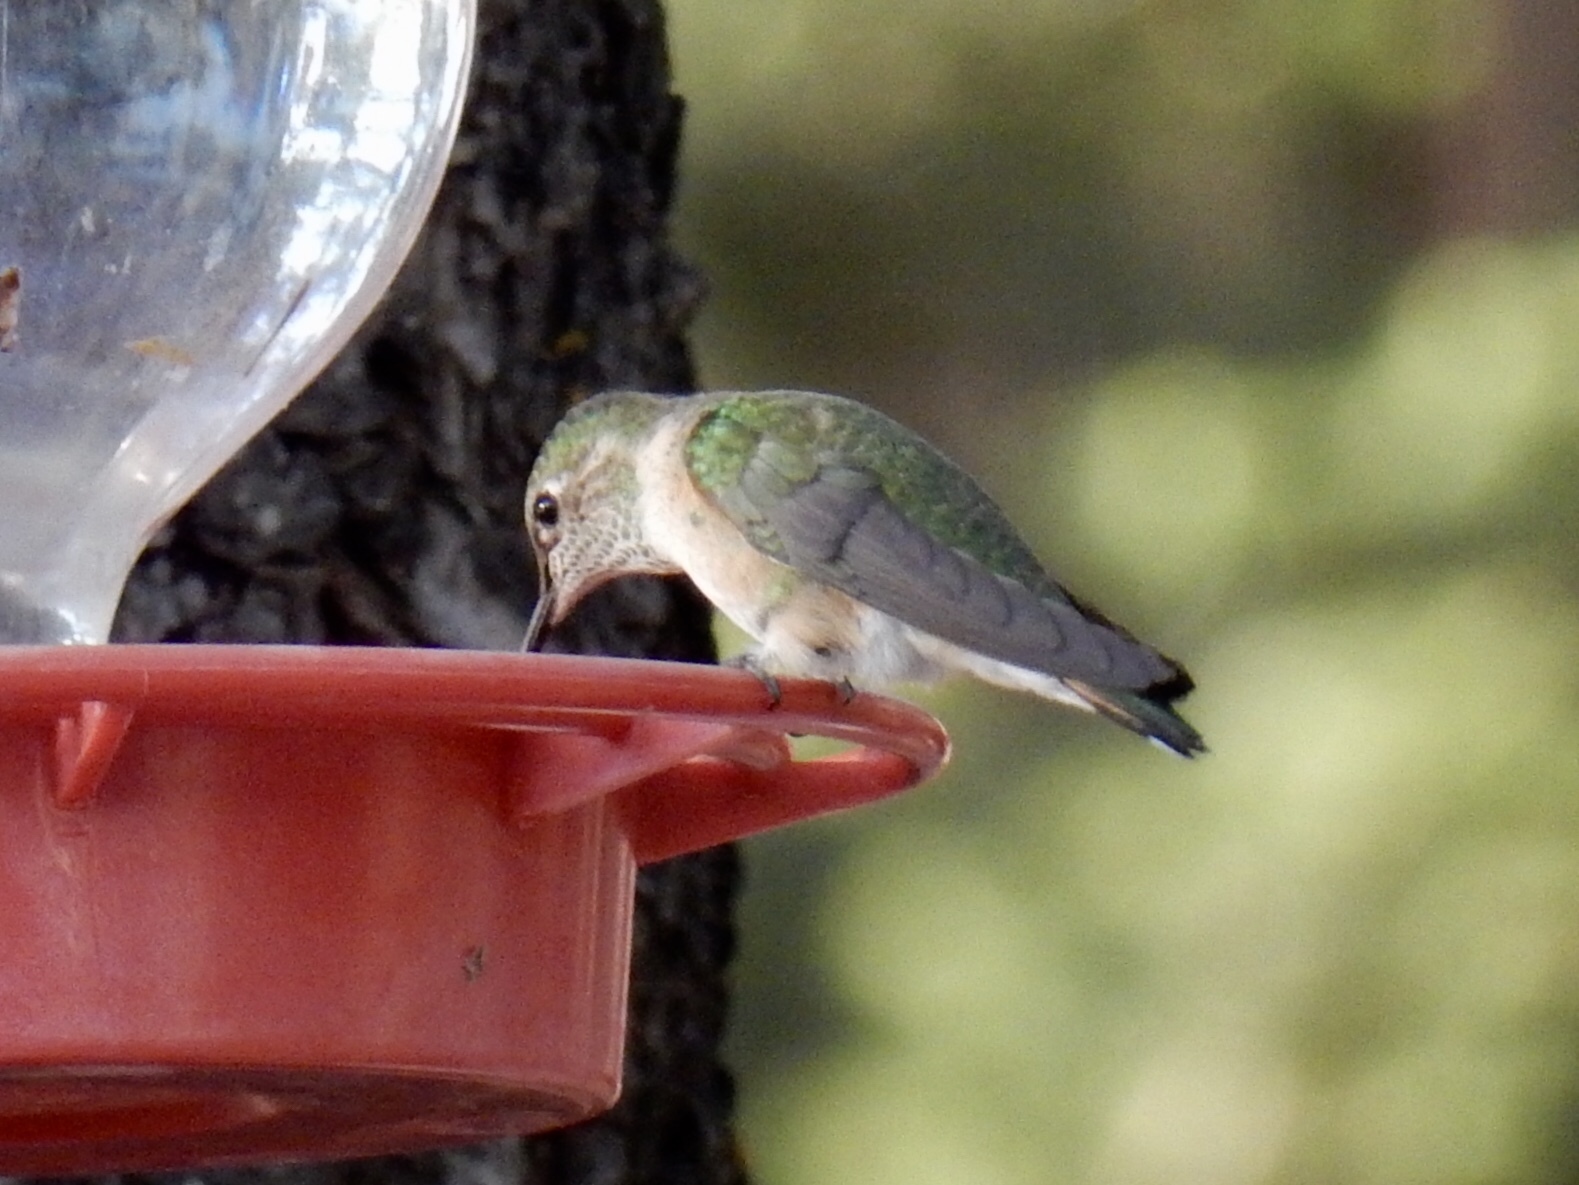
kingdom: Animalia
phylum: Chordata
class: Aves
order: Apodiformes
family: Trochilidae
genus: Selasphorus
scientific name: Selasphorus platycercus
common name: Broad-tailed hummingbird
